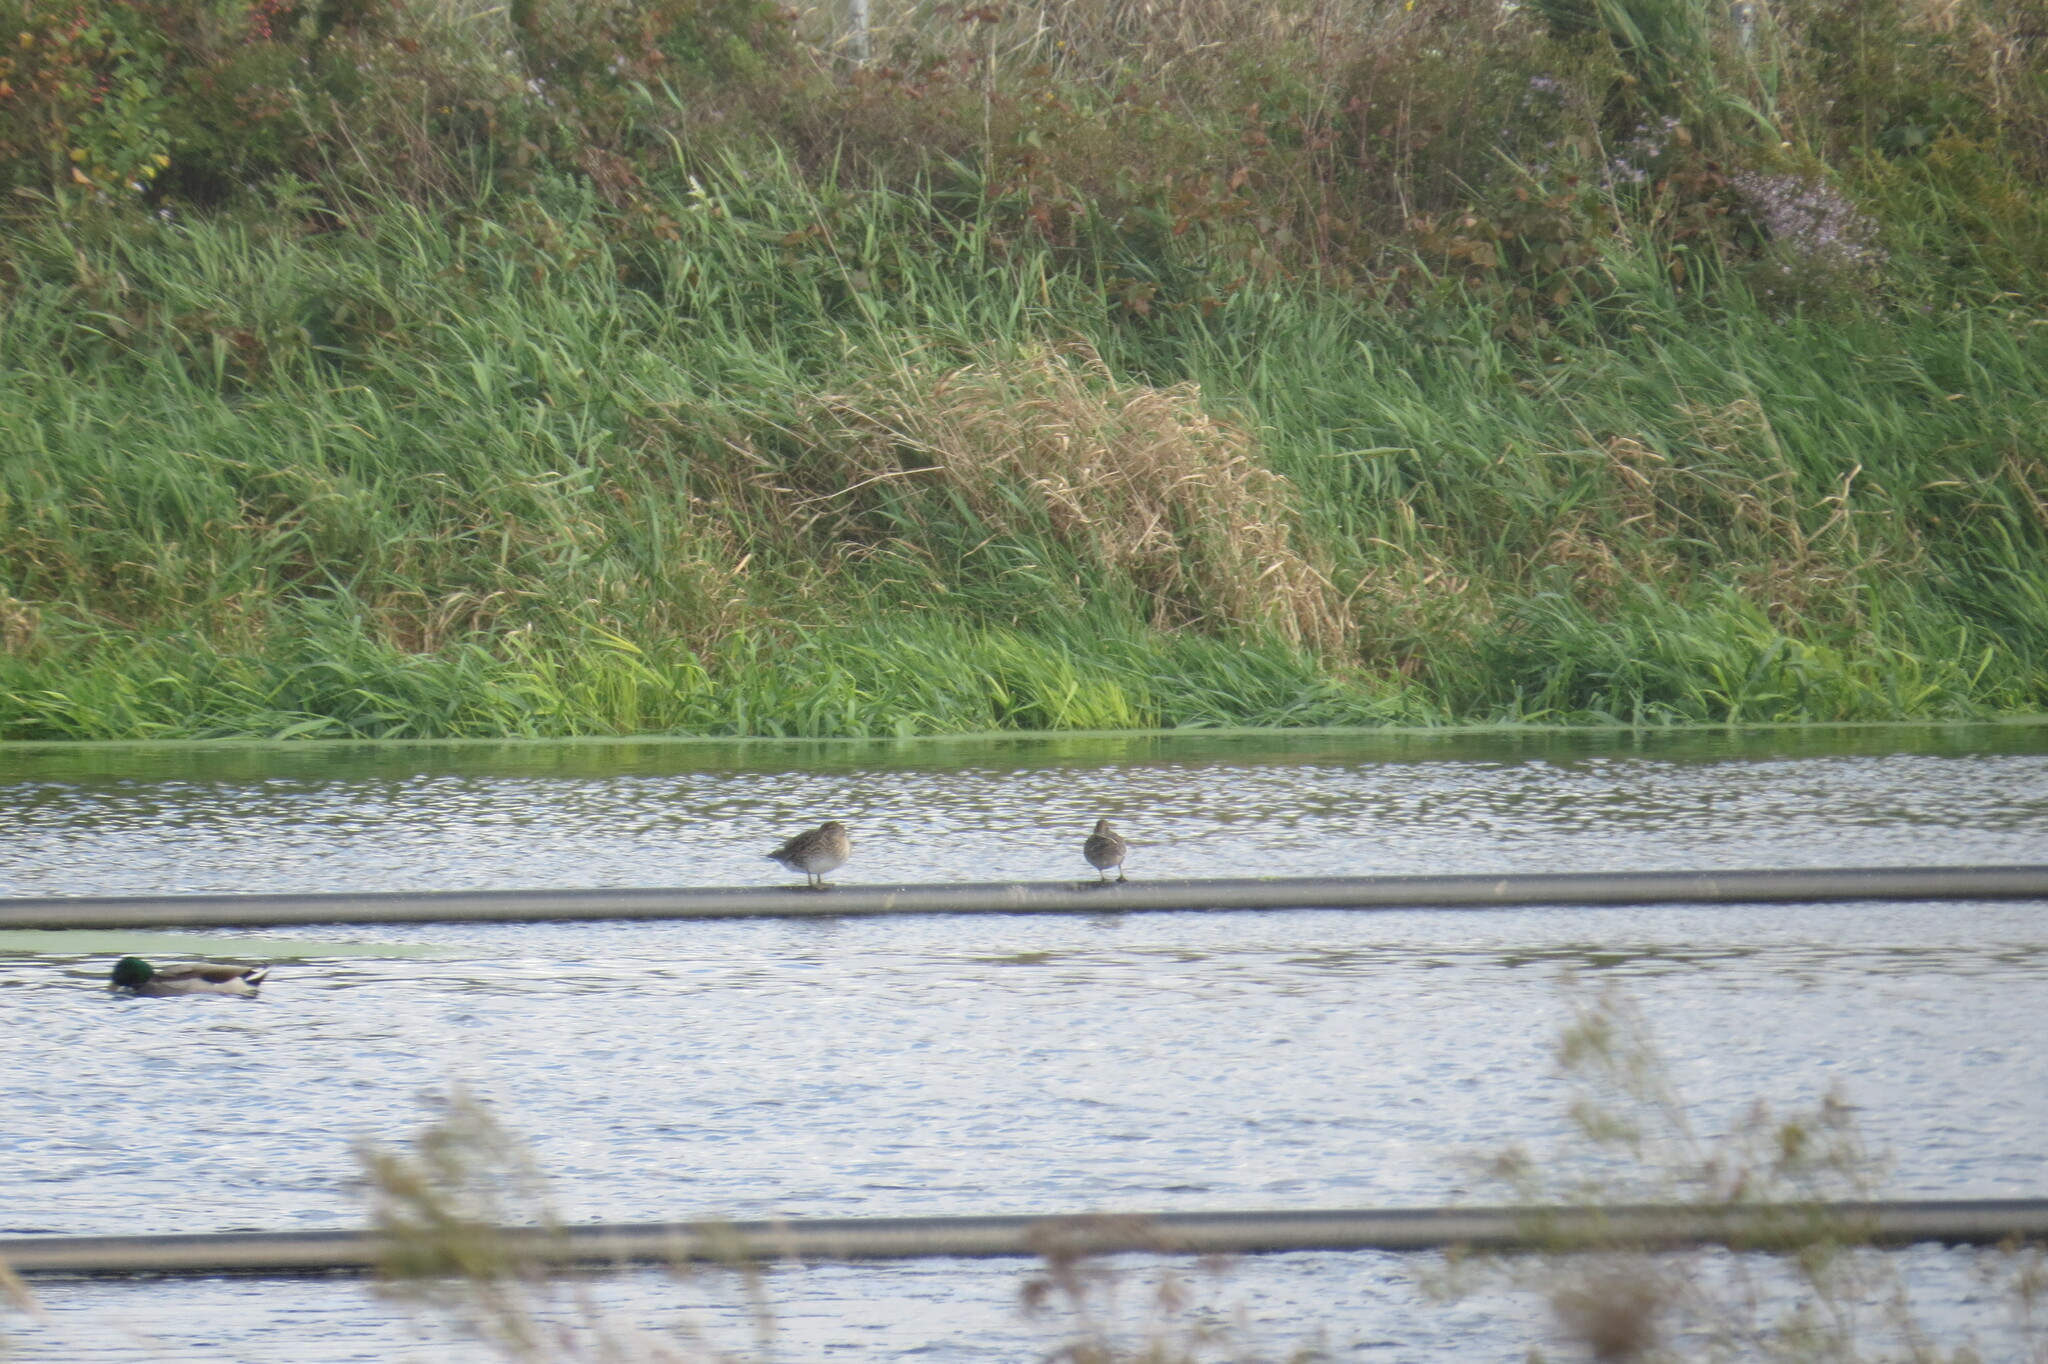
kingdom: Animalia
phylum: Chordata
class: Aves
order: Anseriformes
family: Anatidae
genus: Anas
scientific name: Anas platyrhynchos
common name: Mallard
